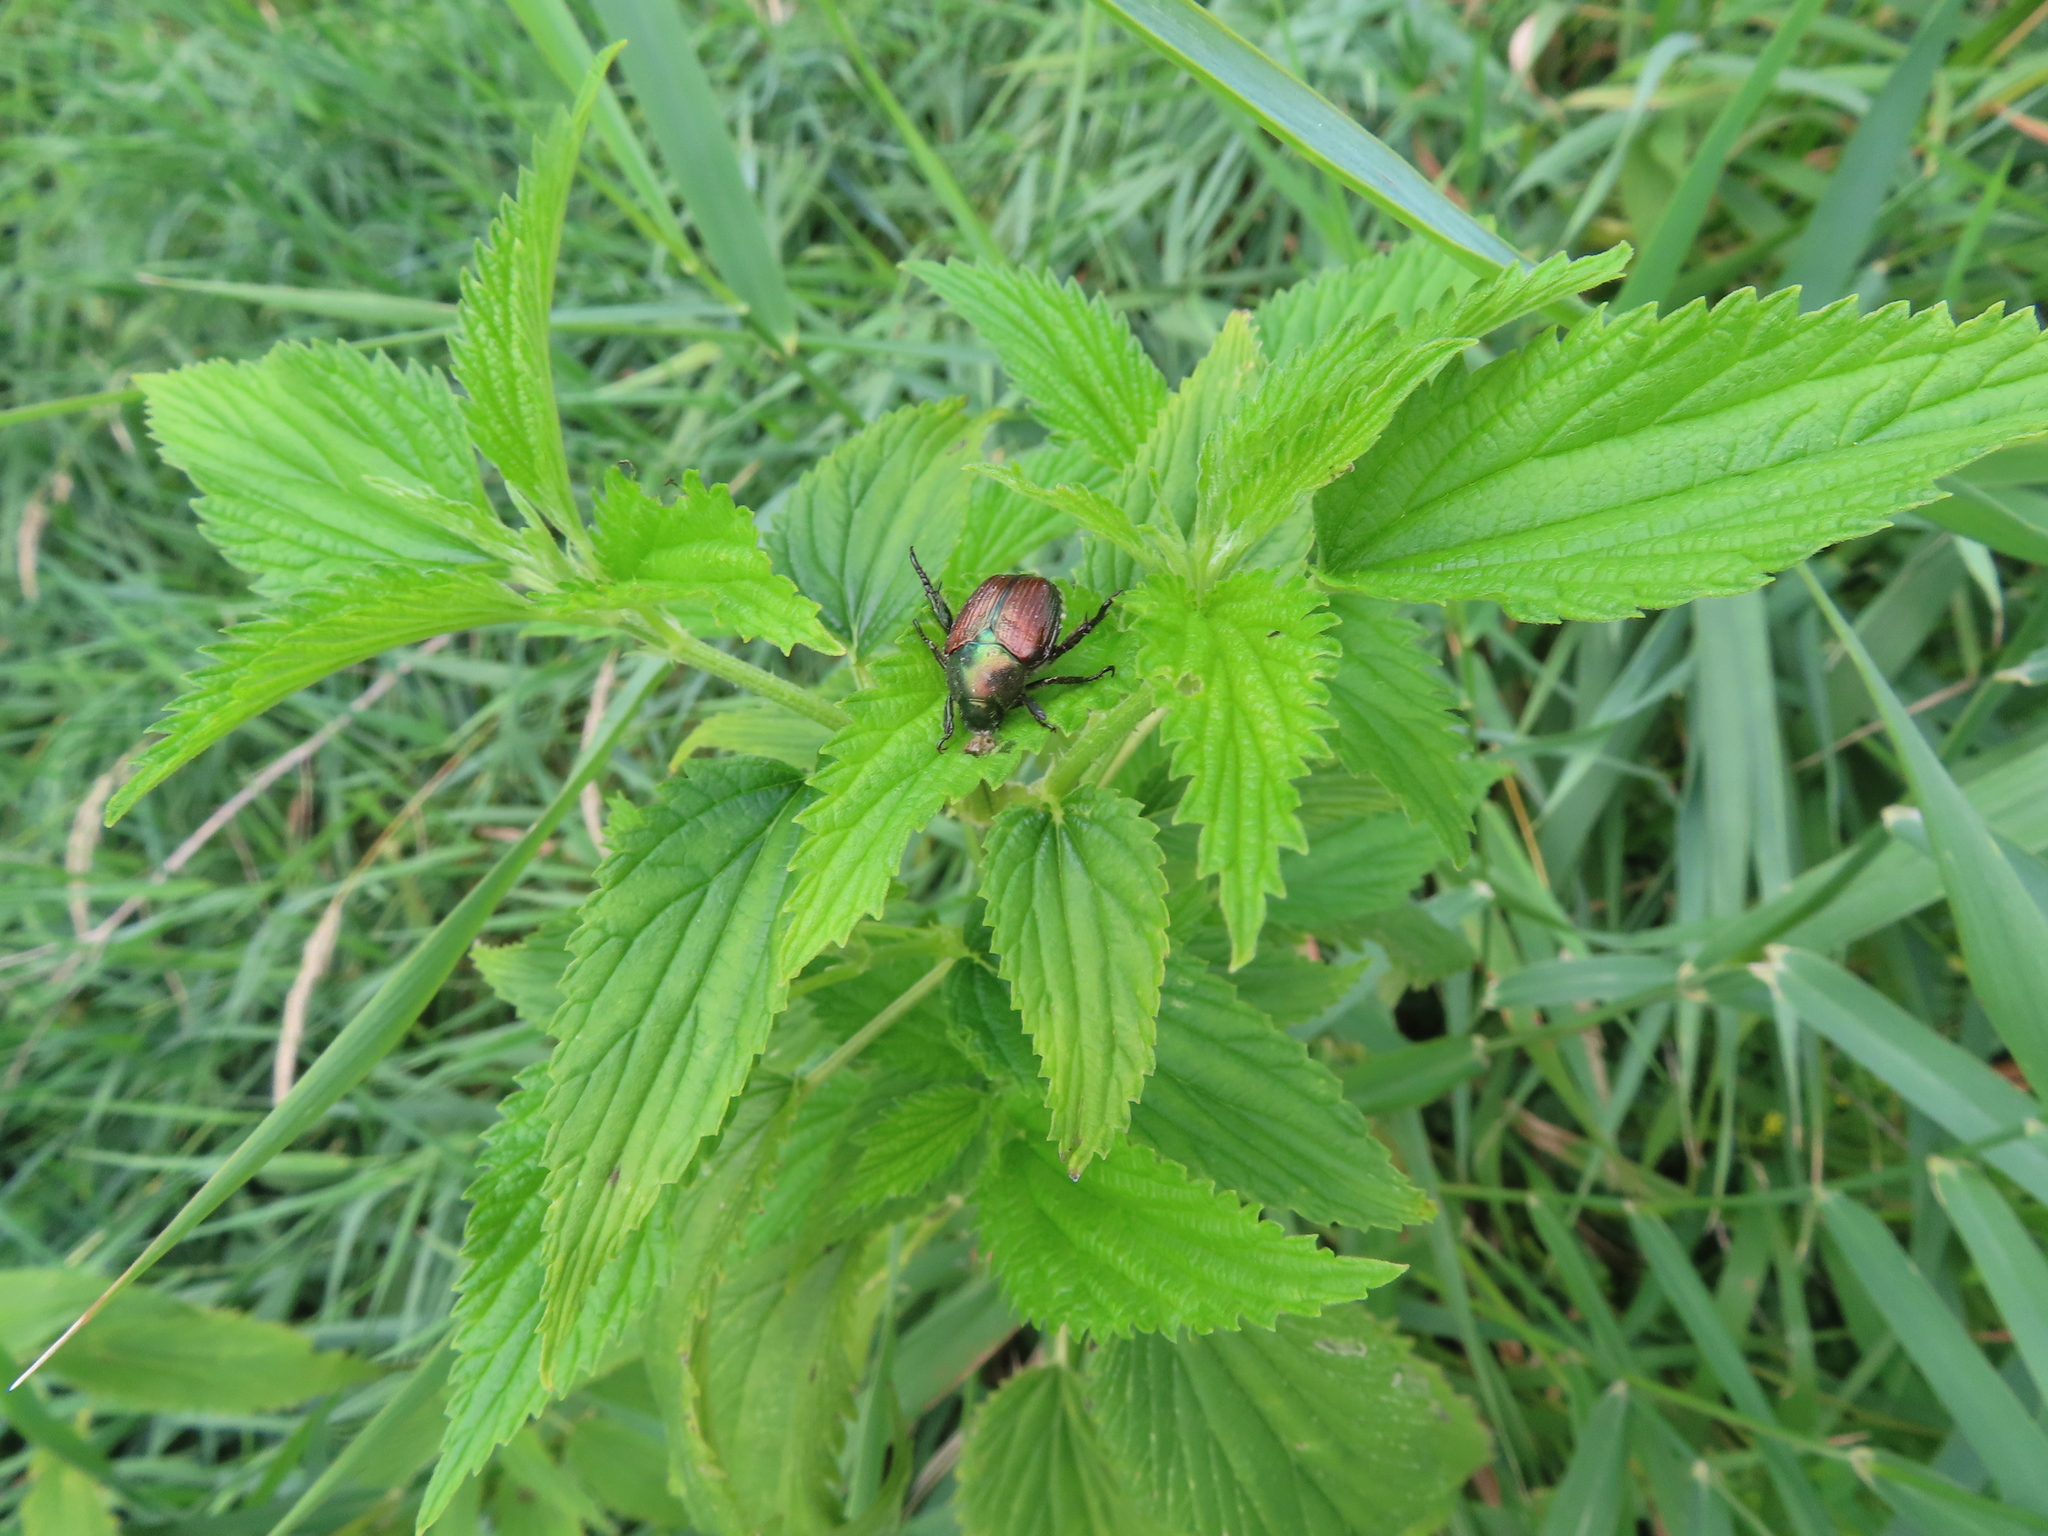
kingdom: Animalia
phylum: Arthropoda
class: Insecta
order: Coleoptera
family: Scarabaeidae
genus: Popillia
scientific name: Popillia japonica
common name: Japanese beetle
